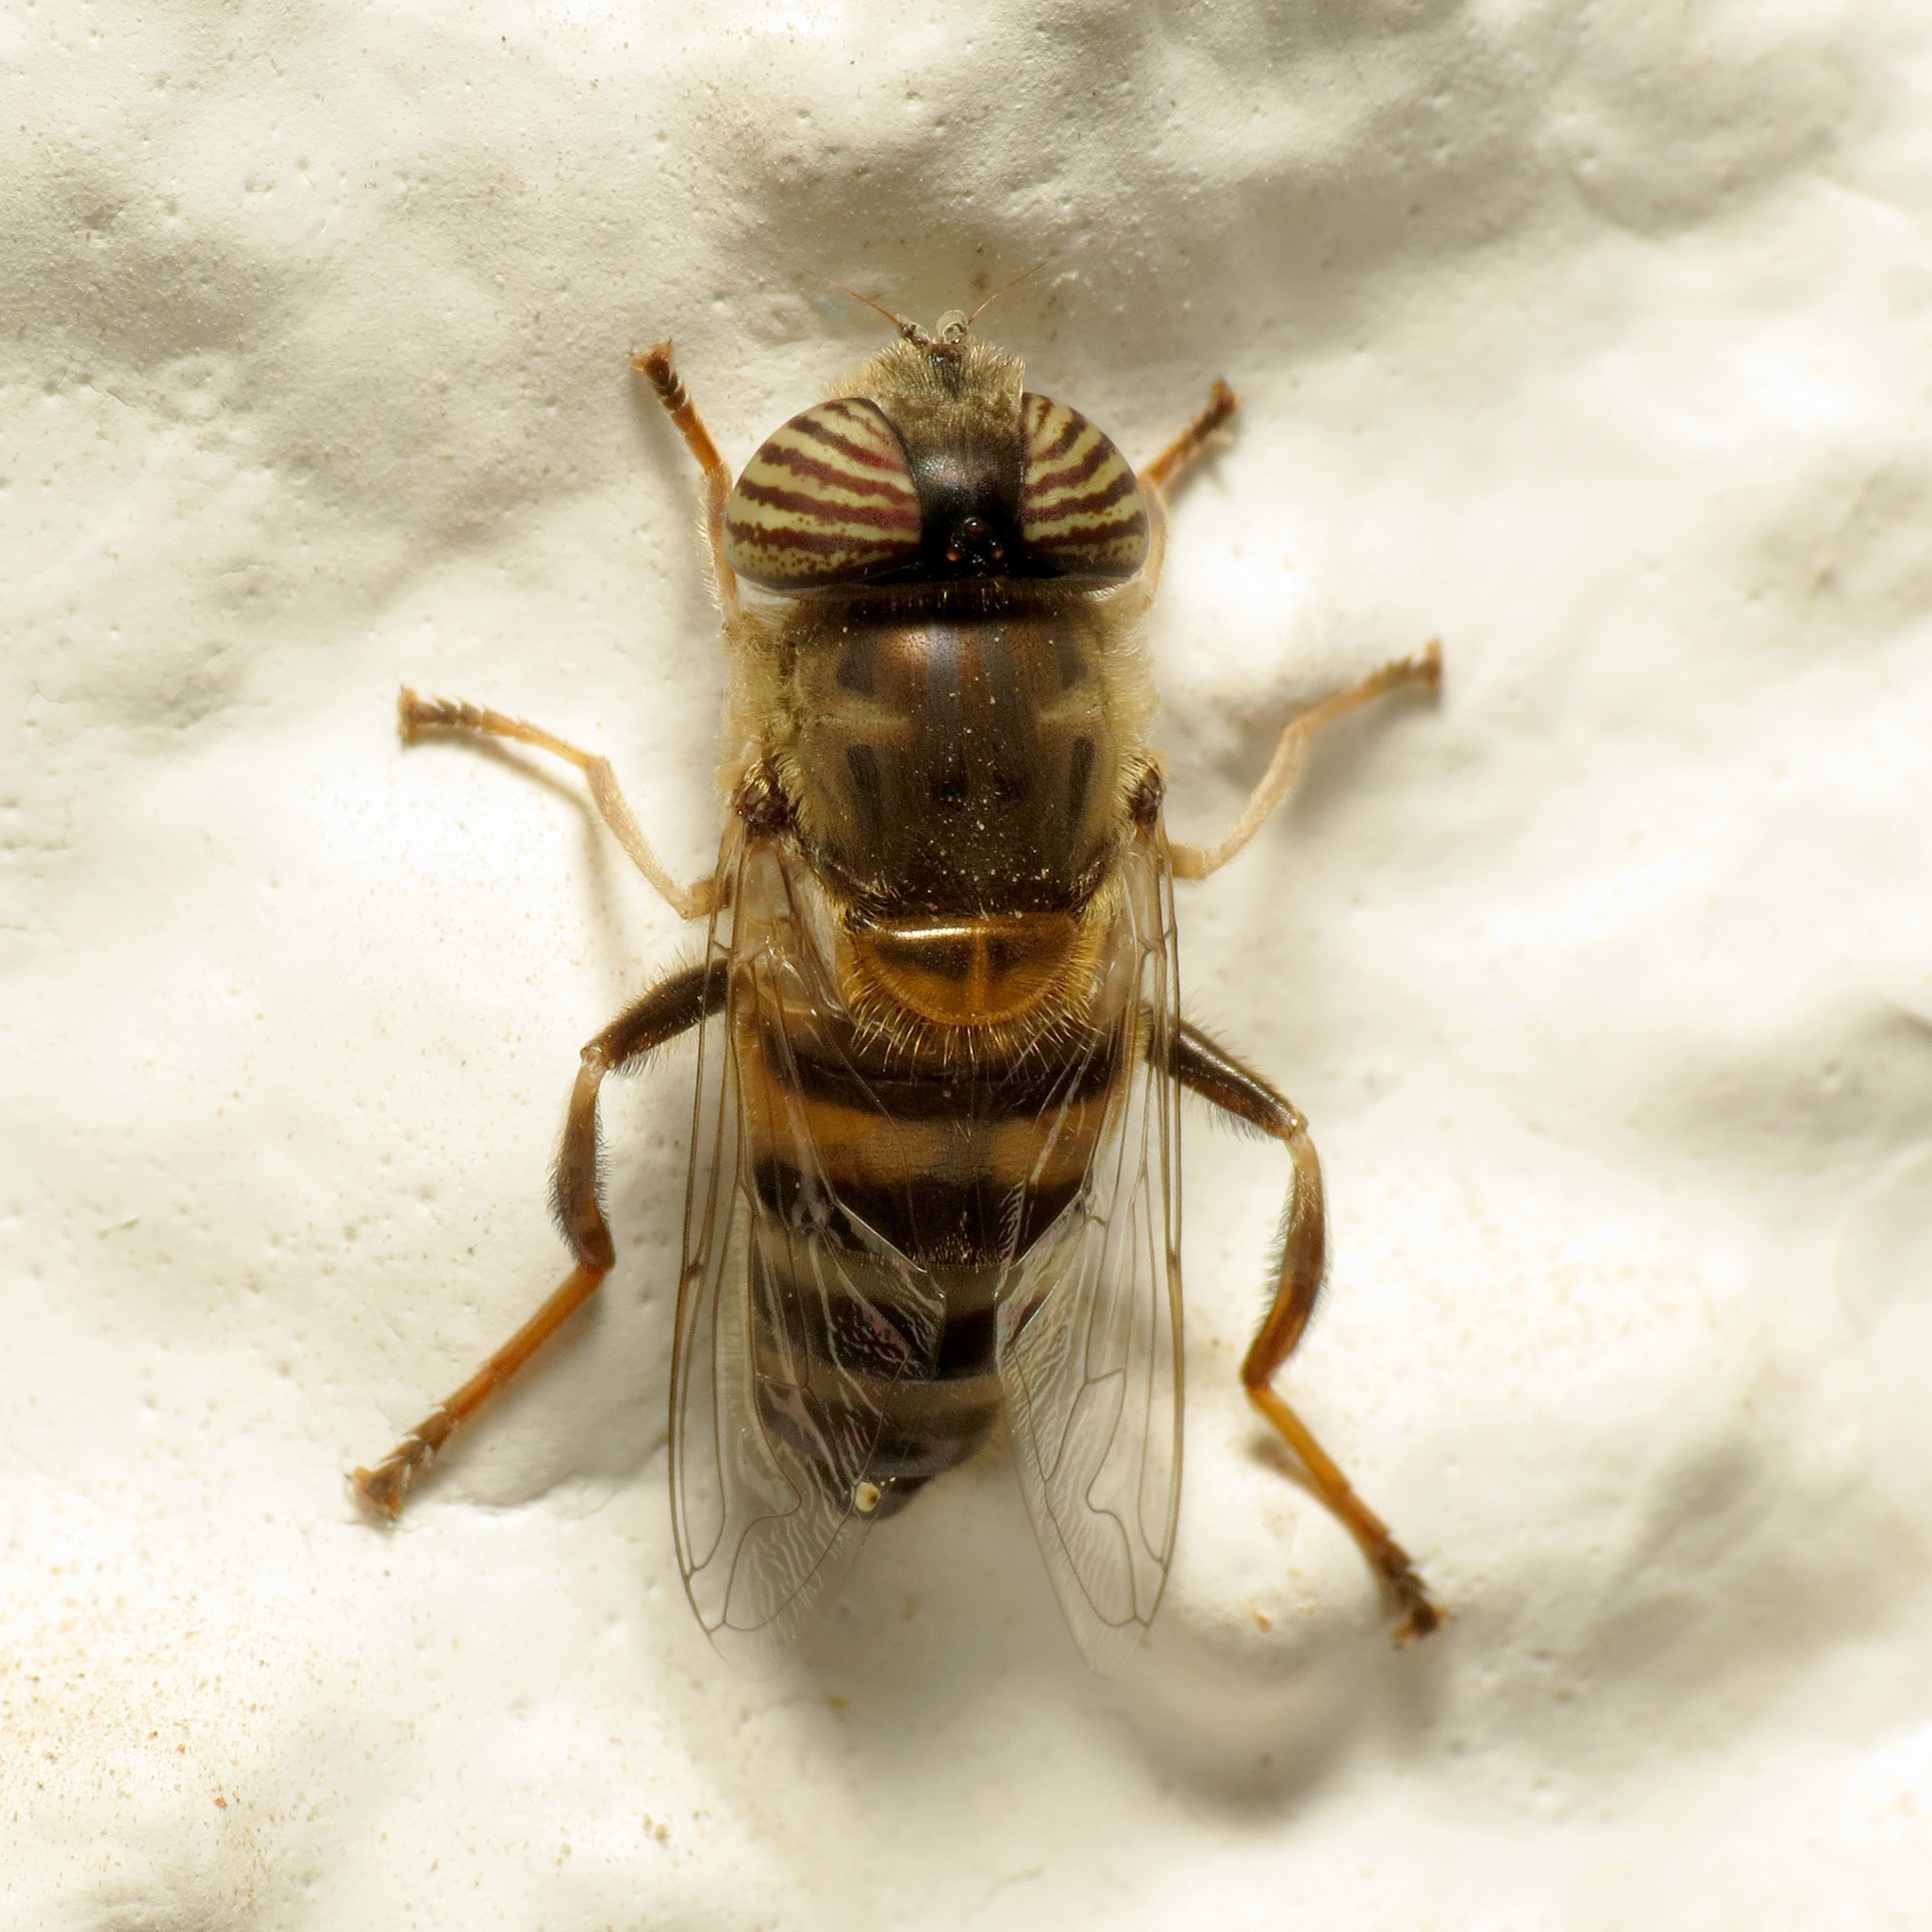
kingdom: Animalia
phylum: Arthropoda
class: Insecta
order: Diptera
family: Syrphidae
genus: Eristalinus
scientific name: Eristalinus taeniops
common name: Syrphid fly
